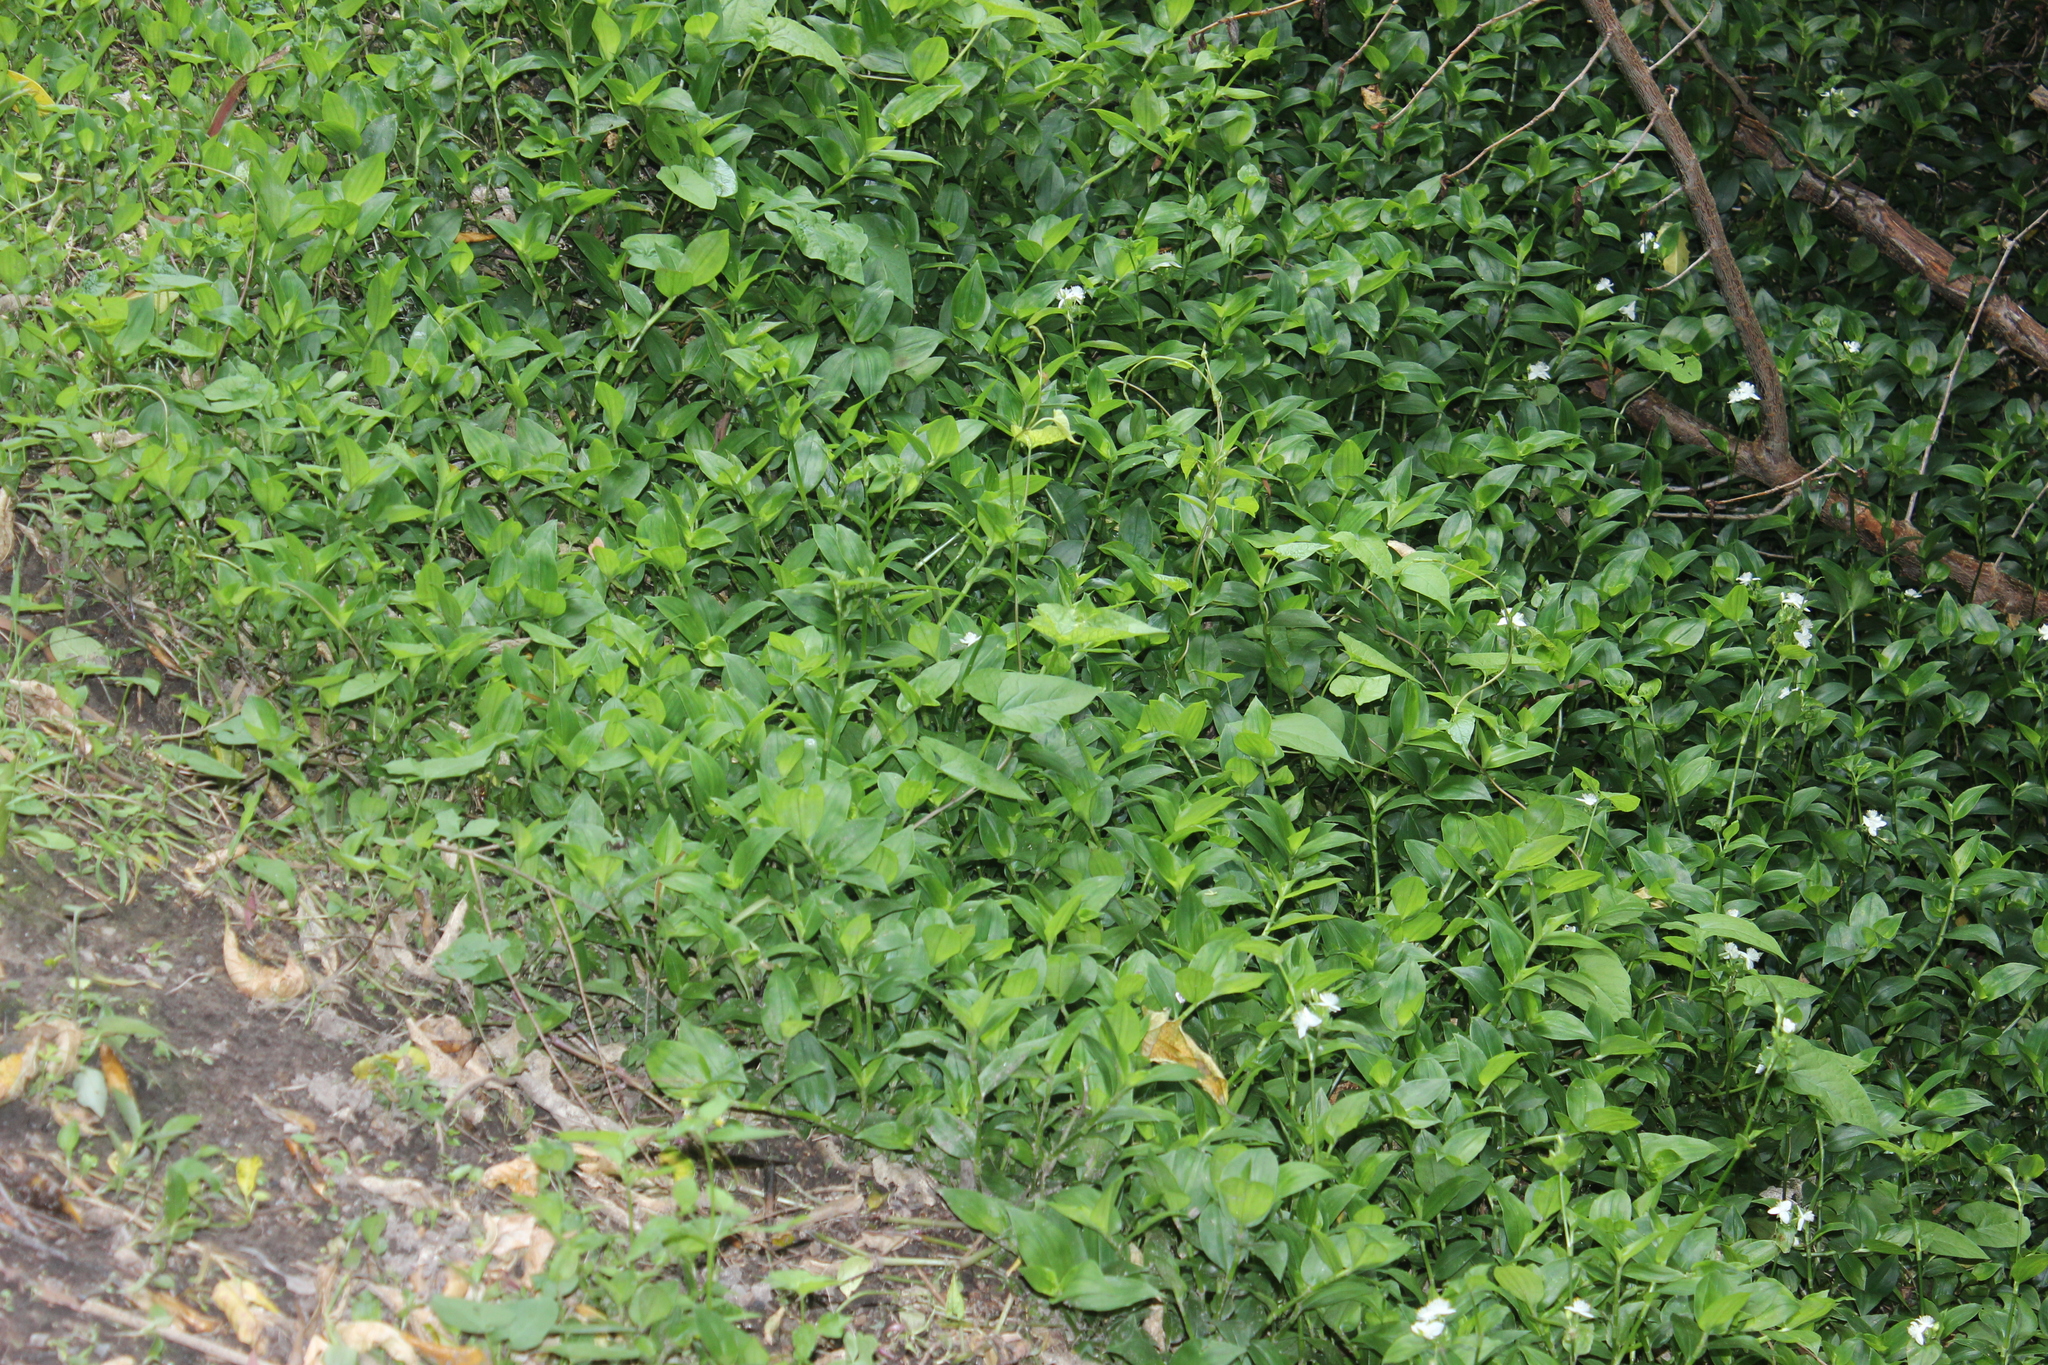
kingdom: Plantae
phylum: Tracheophyta
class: Liliopsida
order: Commelinales
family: Commelinaceae
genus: Tradescantia
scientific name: Tradescantia fluminensis
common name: Wandering-jew
